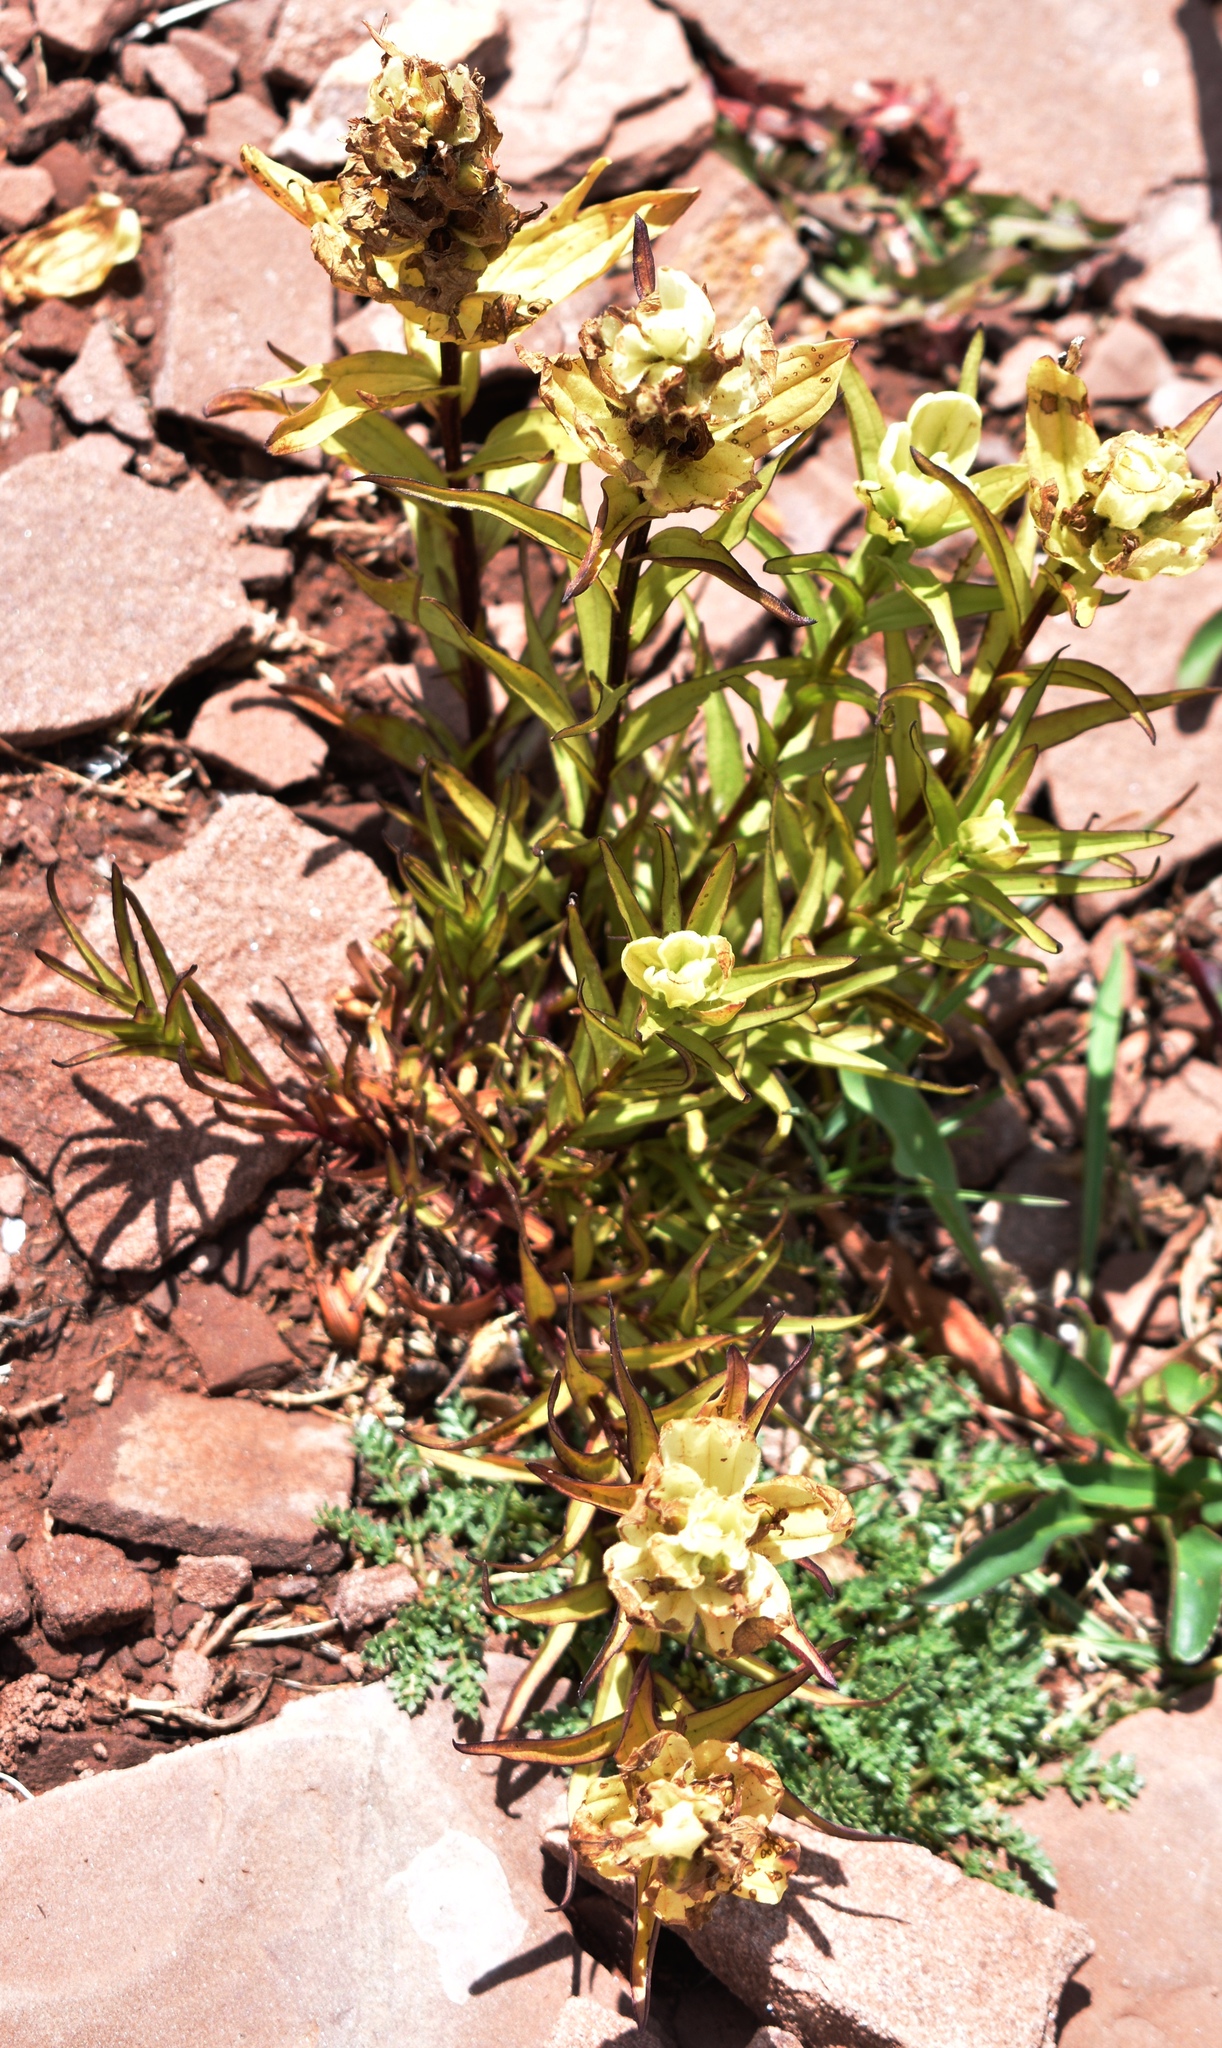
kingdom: Plantae
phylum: Tracheophyta
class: Magnoliopsida
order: Lamiales
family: Orobanchaceae
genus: Castilleja
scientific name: Castilleja occidentalis
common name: Western paintbrush
